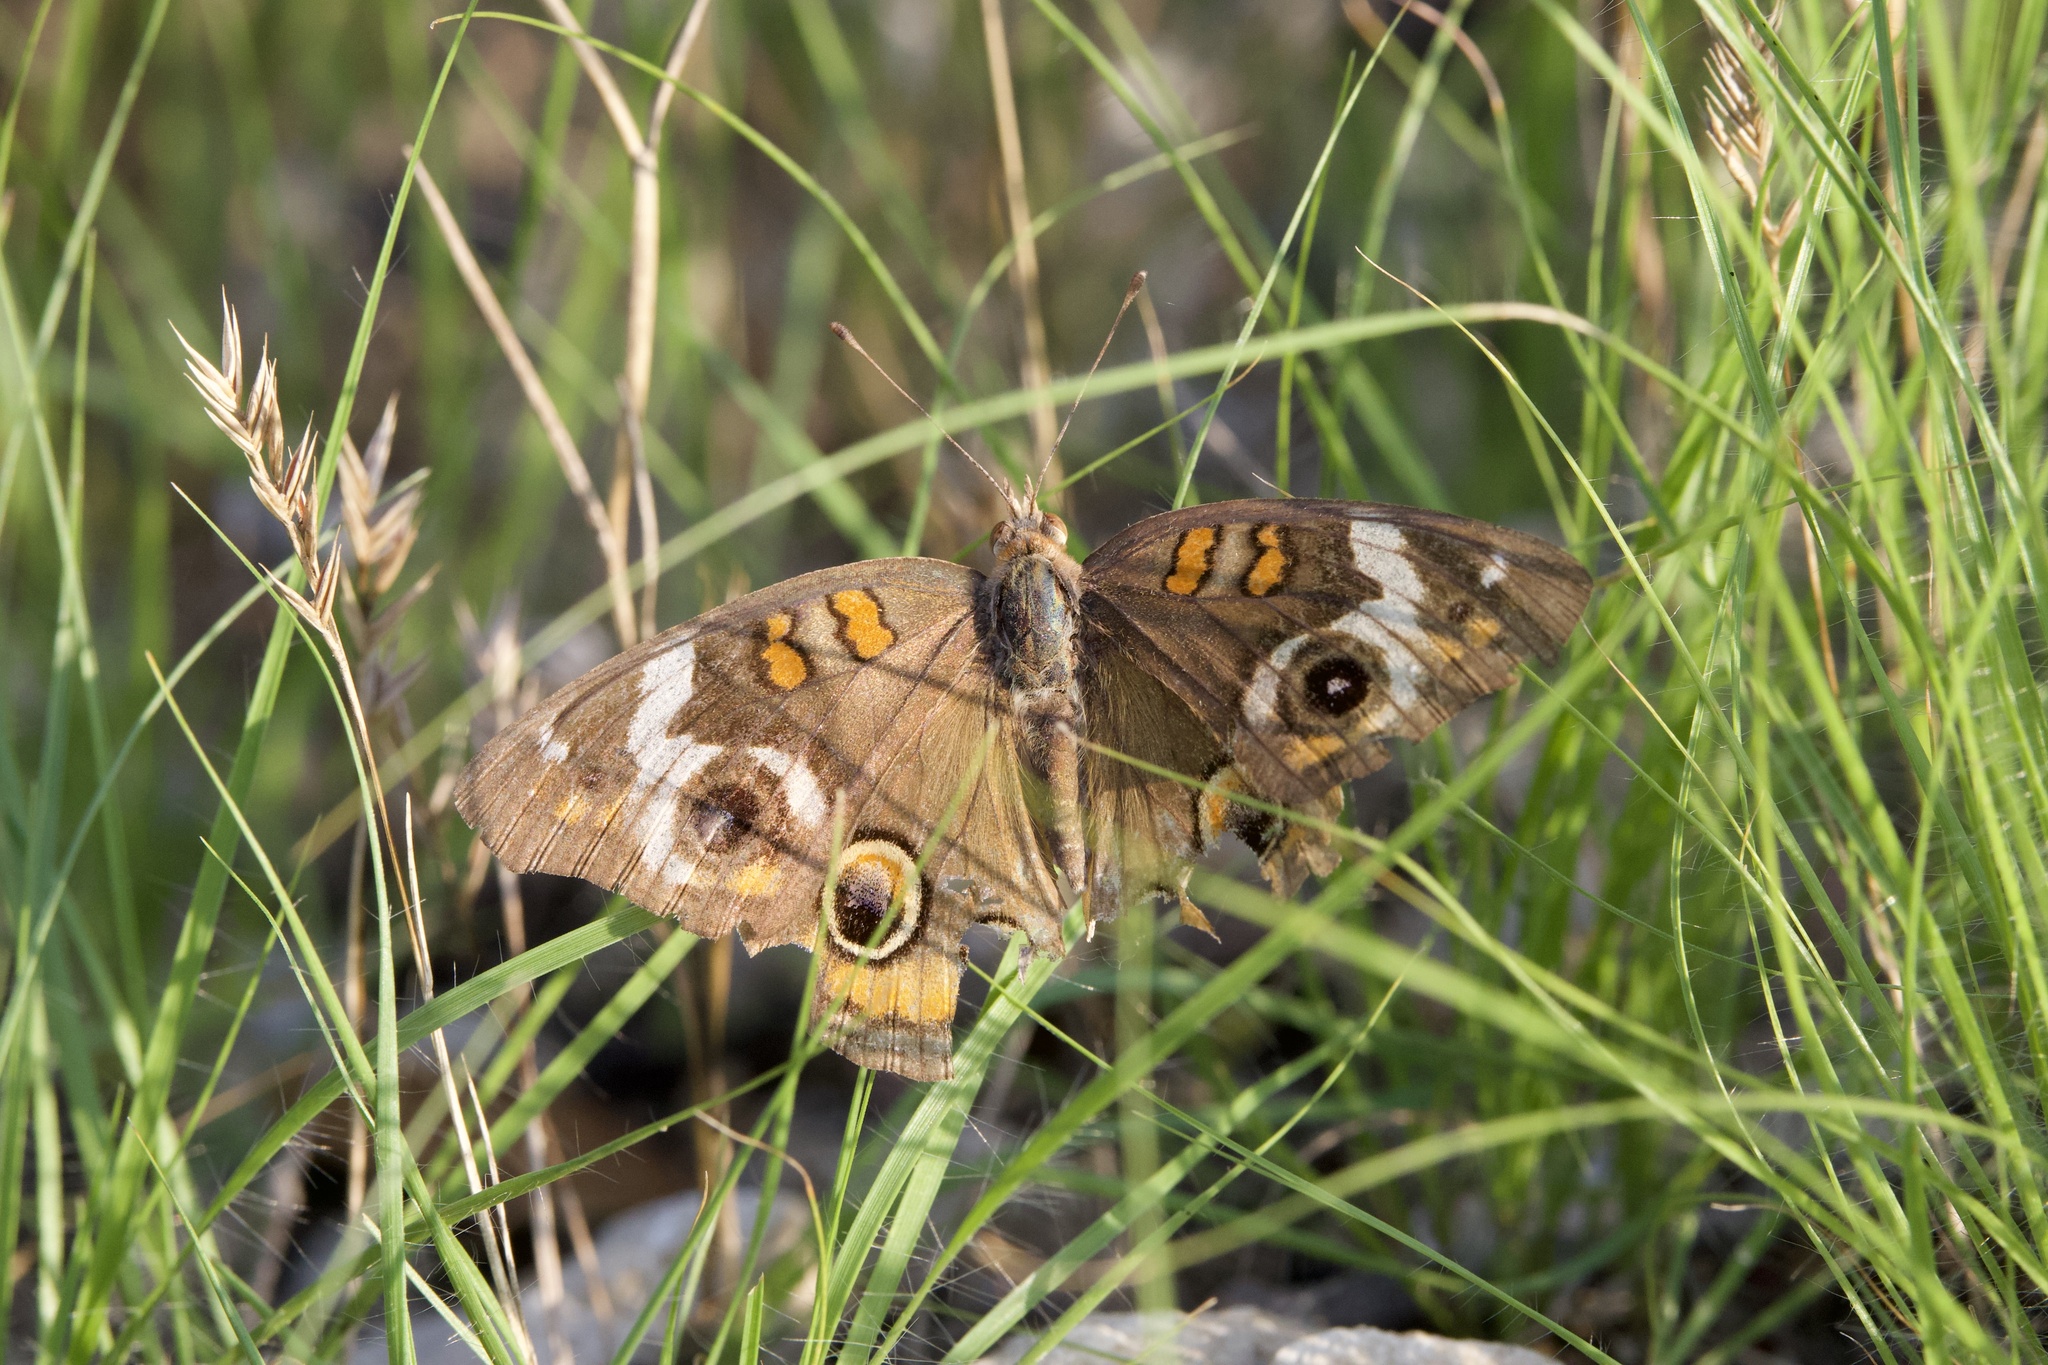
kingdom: Animalia
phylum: Arthropoda
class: Insecta
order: Lepidoptera
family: Nymphalidae
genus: Junonia
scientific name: Junonia coenia
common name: Common buckeye
